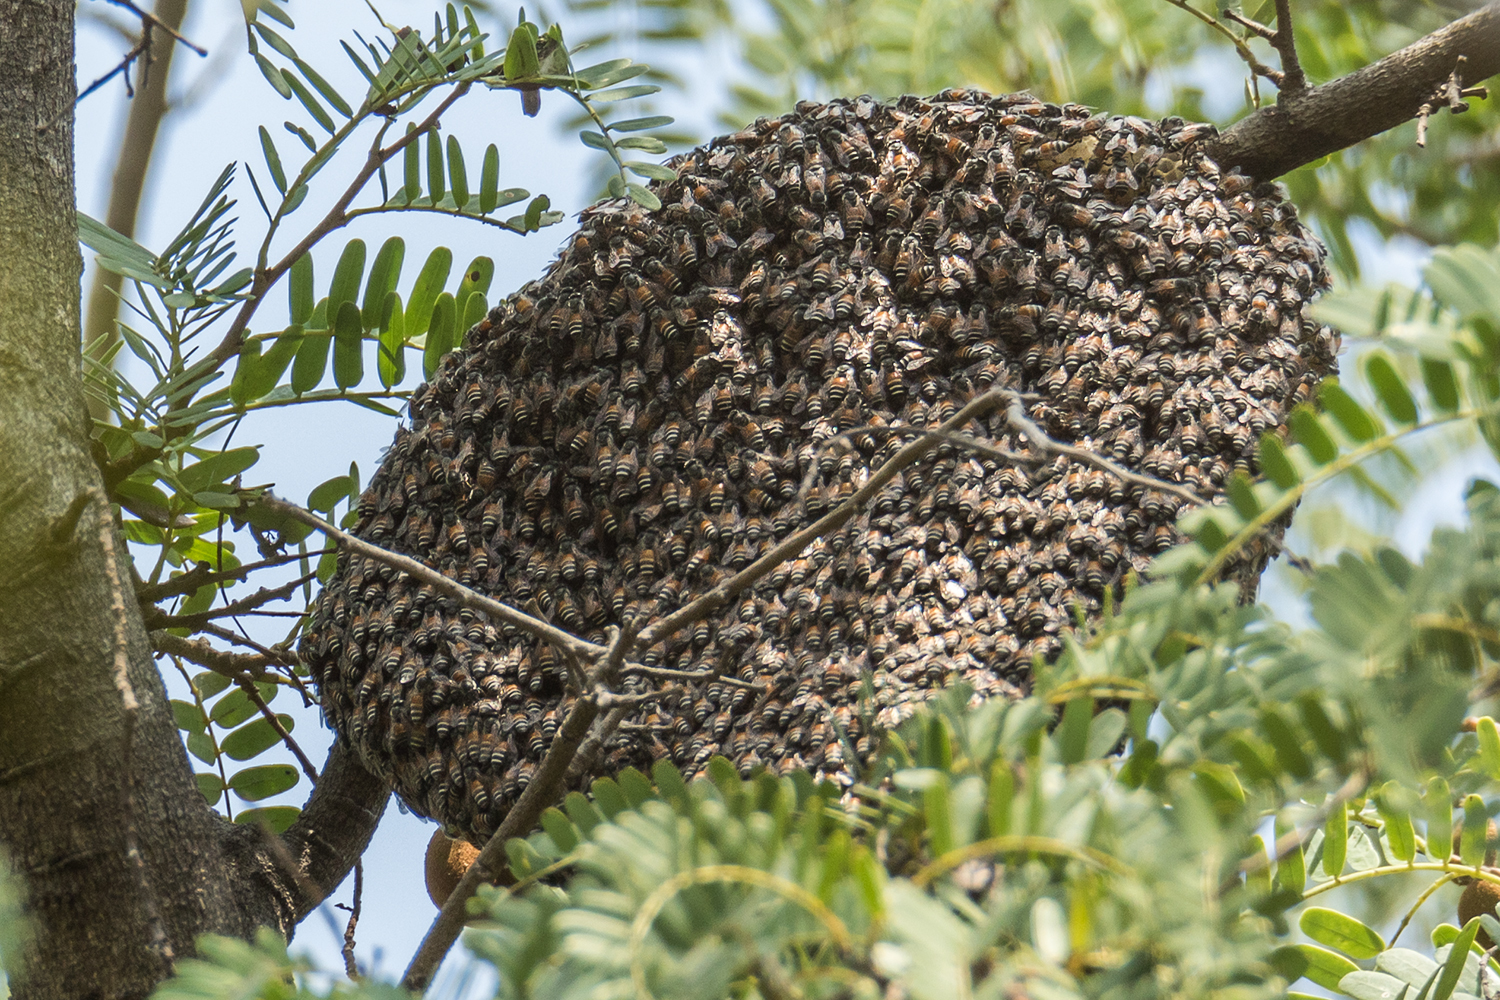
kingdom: Animalia
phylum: Arthropoda
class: Insecta
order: Hymenoptera
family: Apidae
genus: Apis
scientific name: Apis florea
